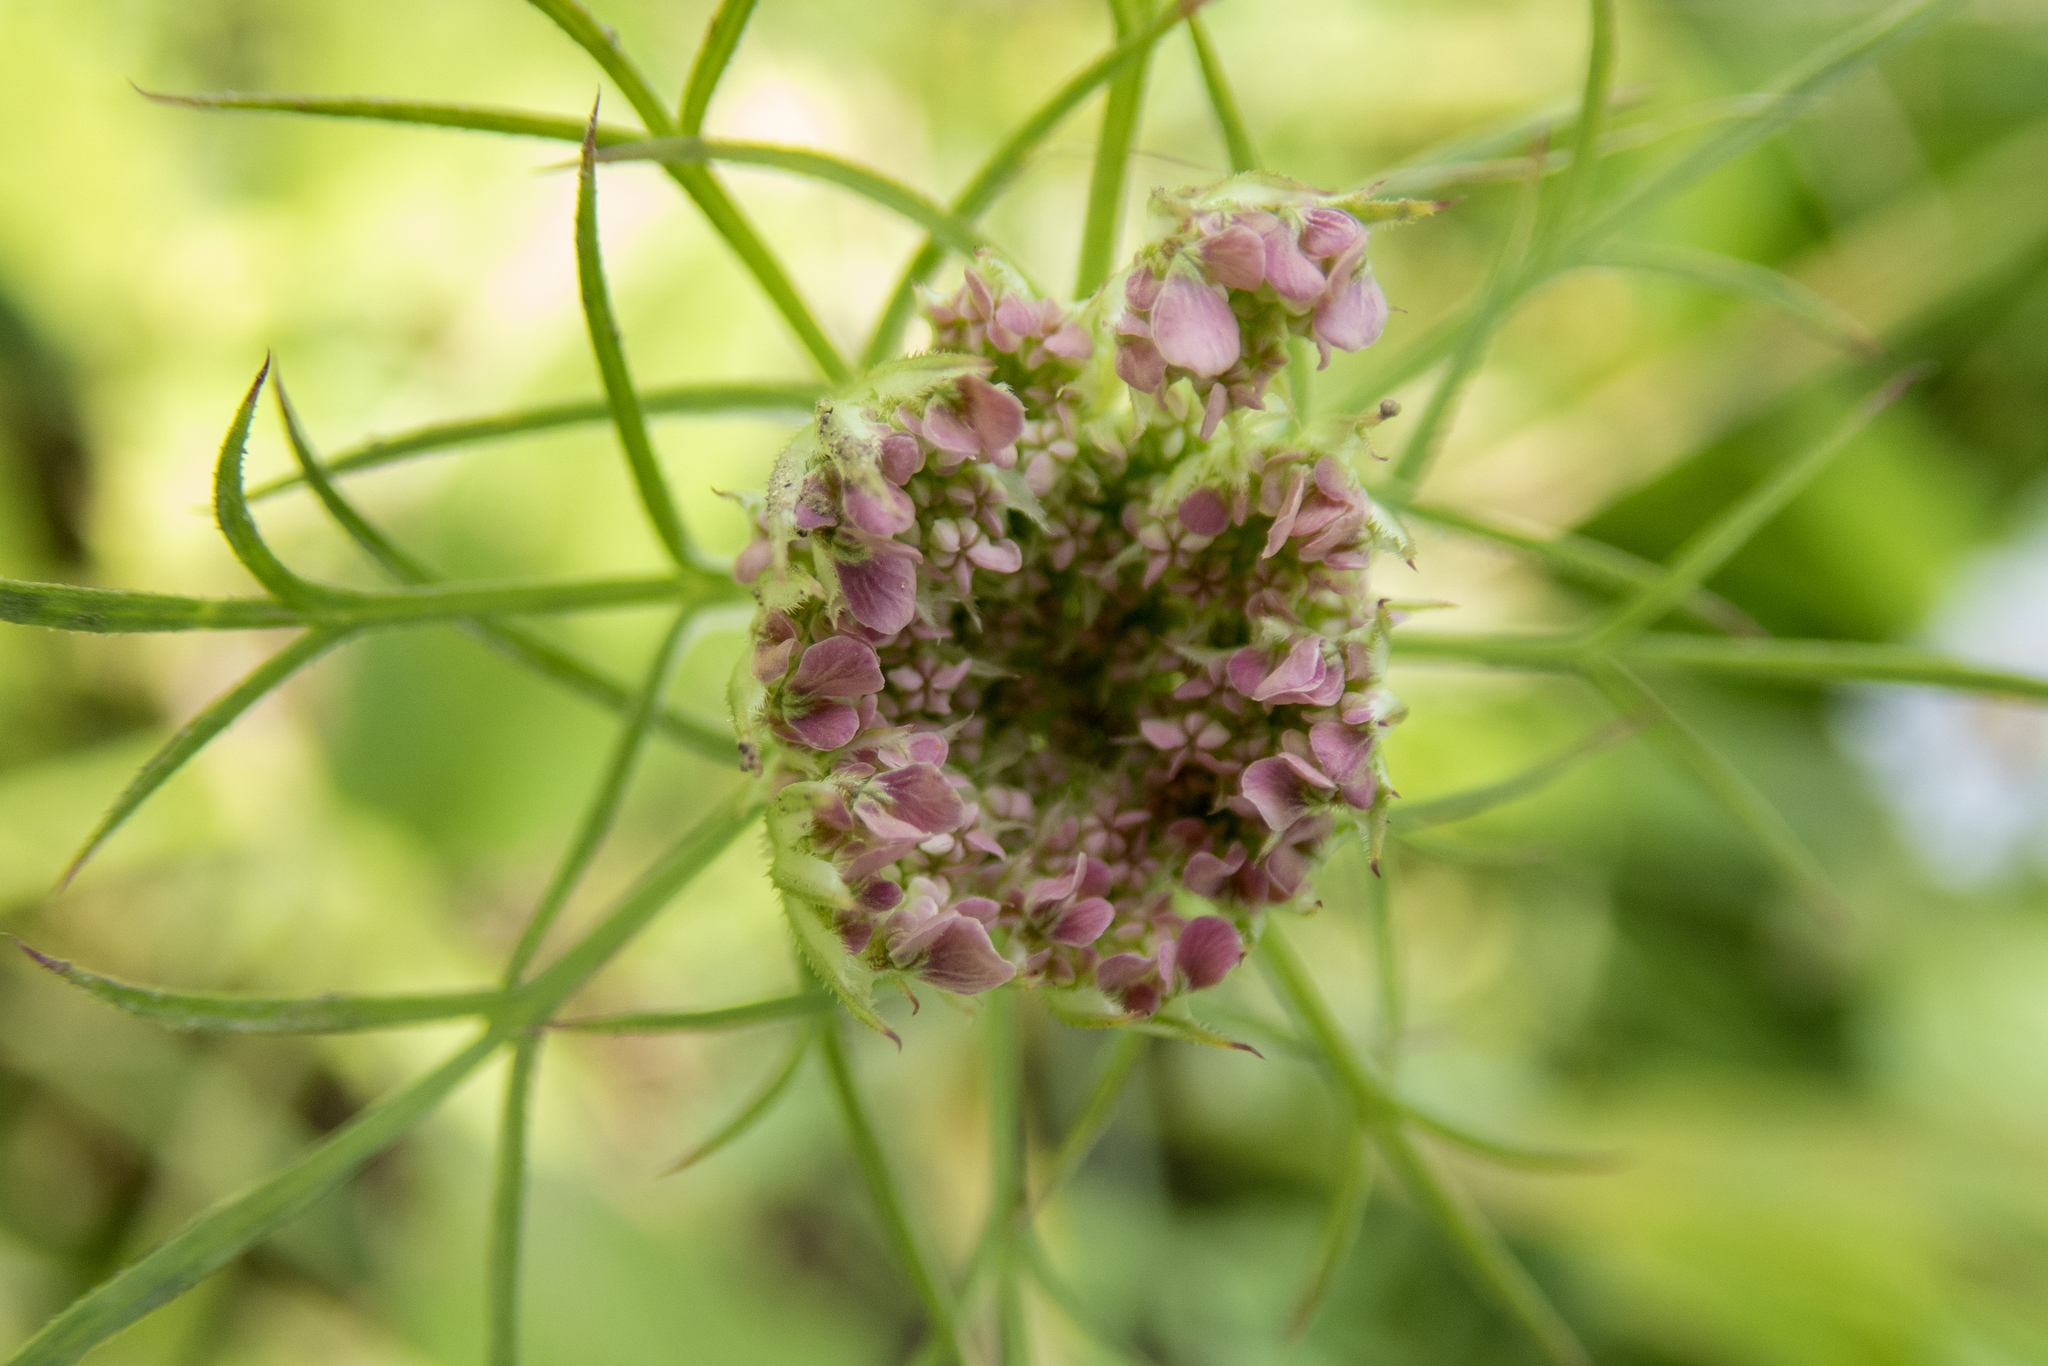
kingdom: Plantae
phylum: Tracheophyta
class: Magnoliopsida
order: Apiales
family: Apiaceae
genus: Daucus
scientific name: Daucus carota
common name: Wild carrot
